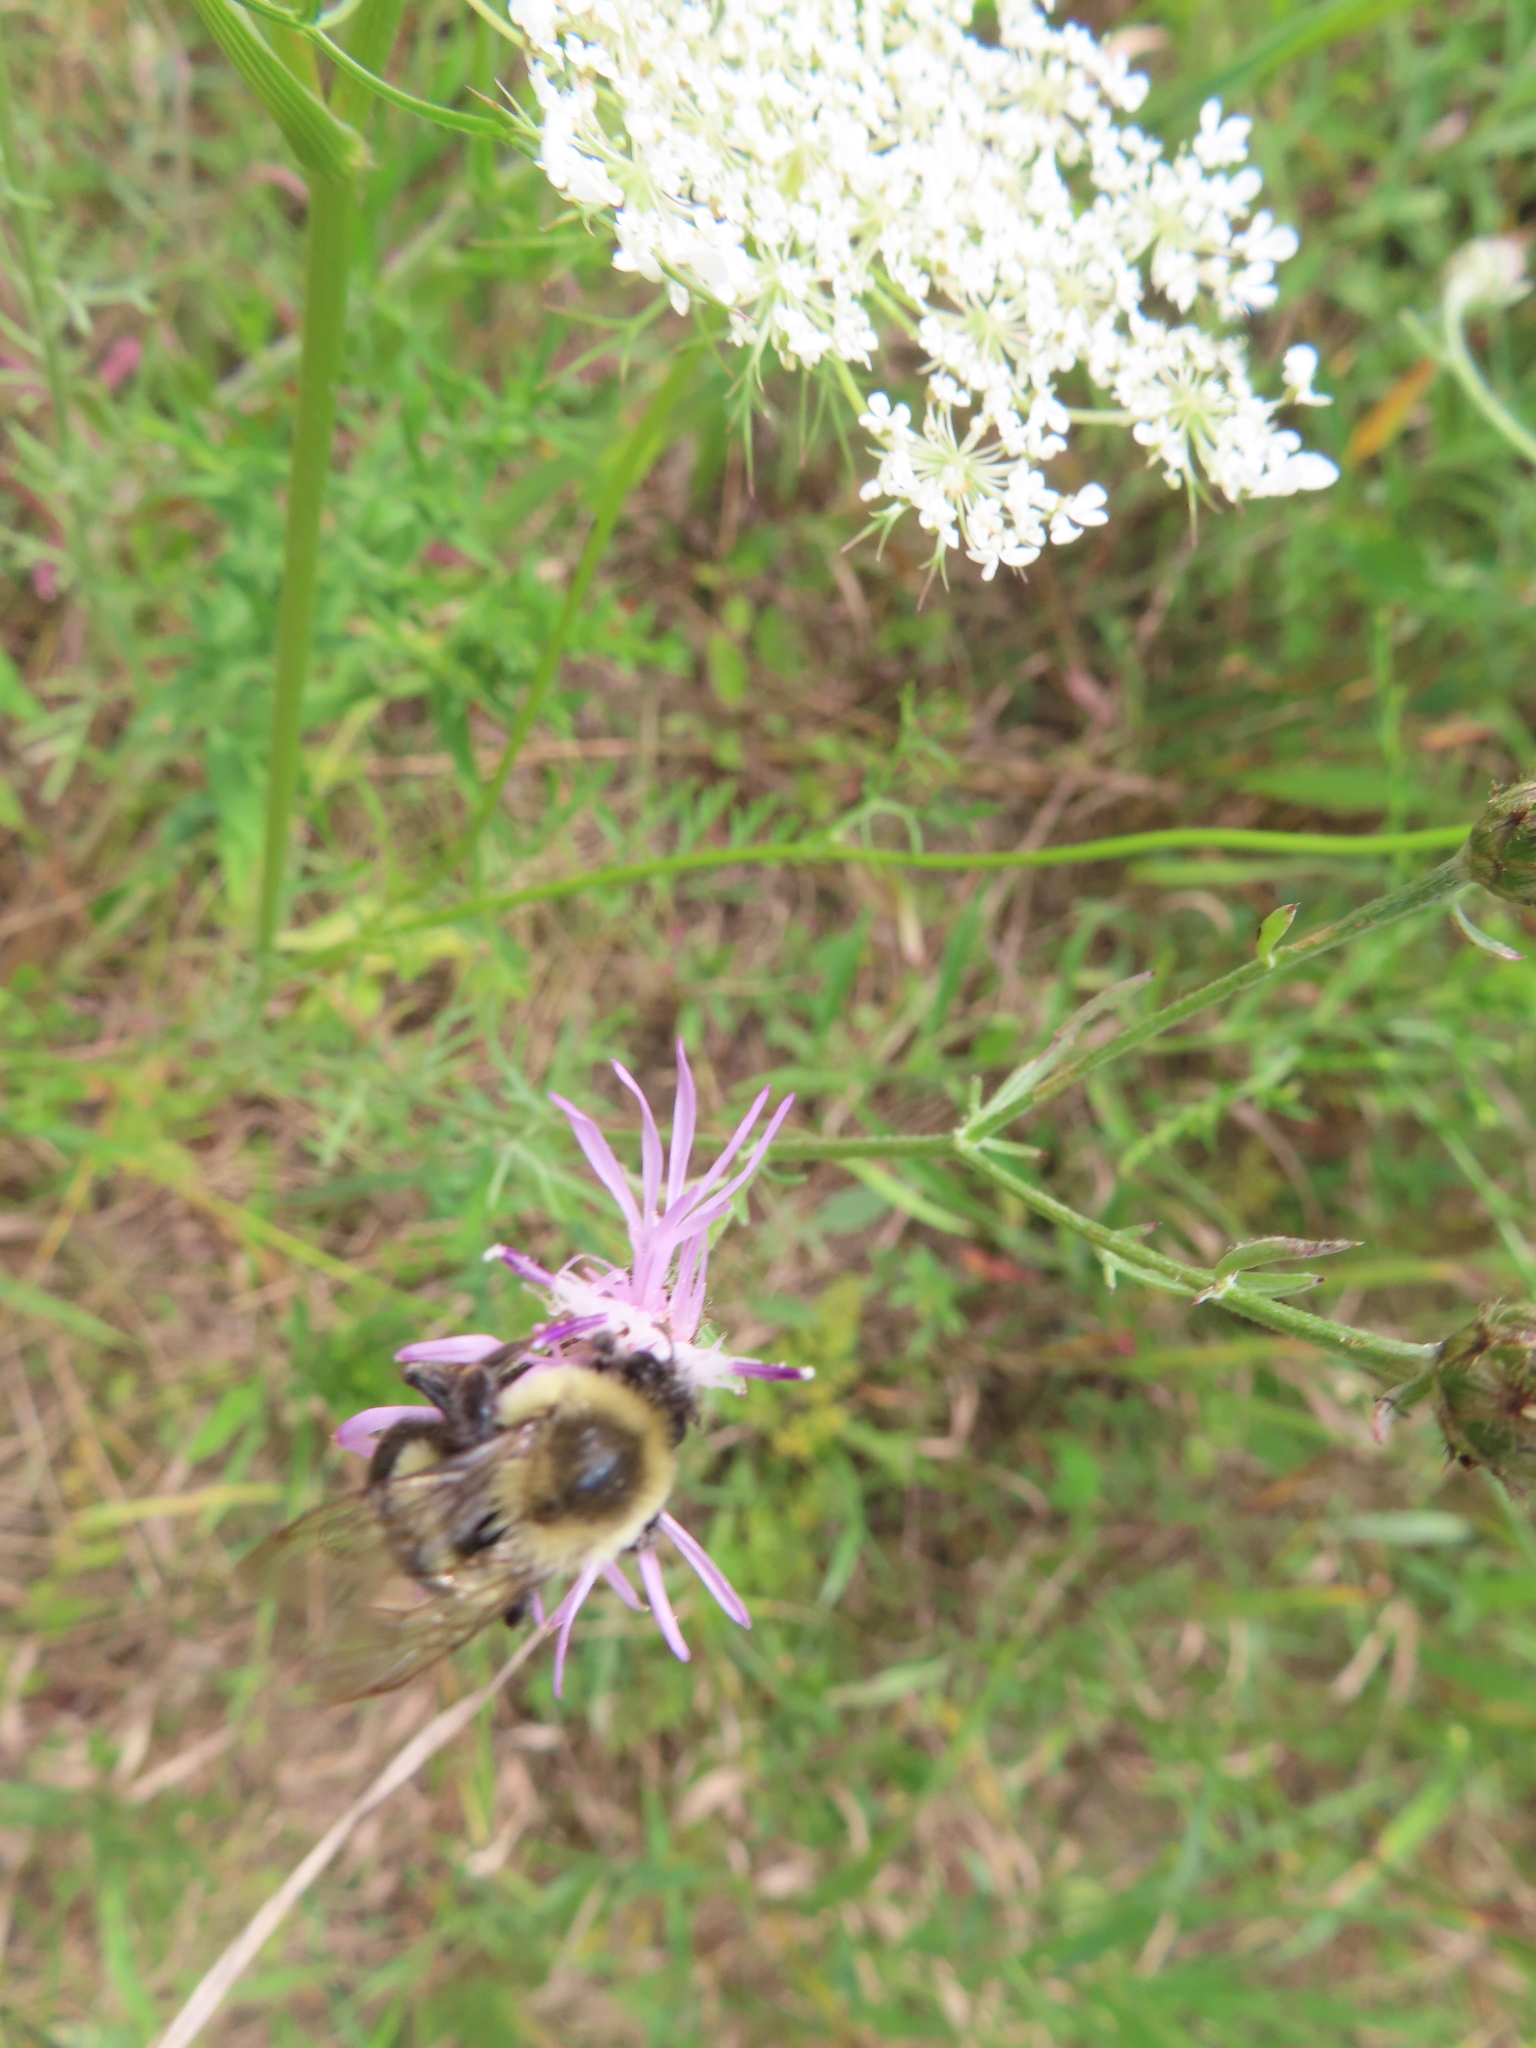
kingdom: Animalia
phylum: Arthropoda
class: Insecta
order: Hymenoptera
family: Apidae
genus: Bombus
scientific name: Bombus impatiens
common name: Common eastern bumble bee
